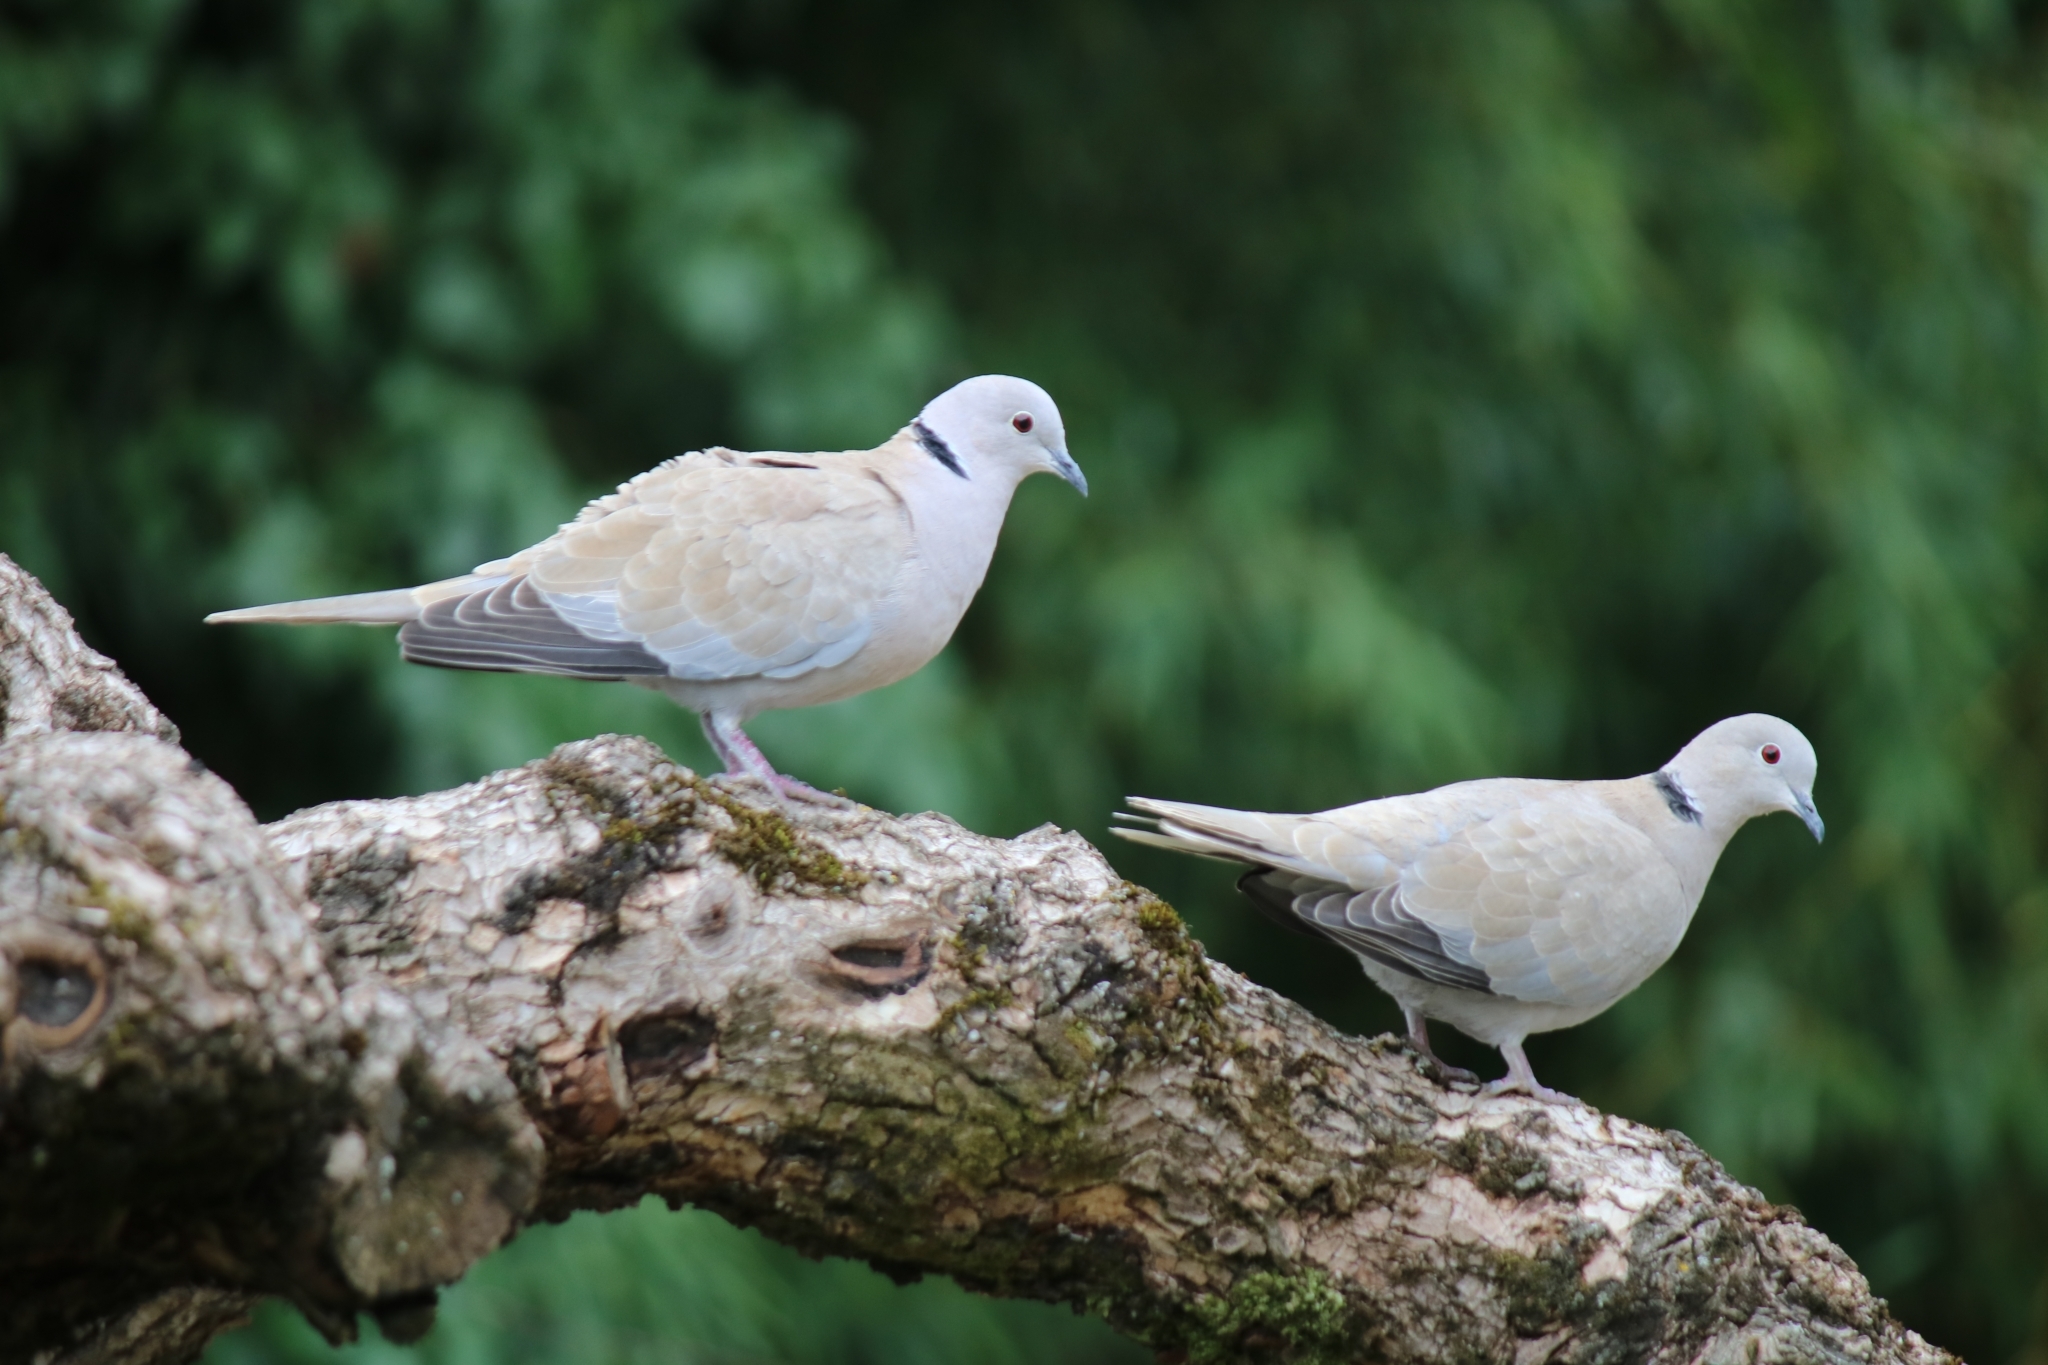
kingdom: Animalia
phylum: Chordata
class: Aves
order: Columbiformes
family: Columbidae
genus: Streptopelia
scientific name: Streptopelia decaocto
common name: Eurasian collared dove
